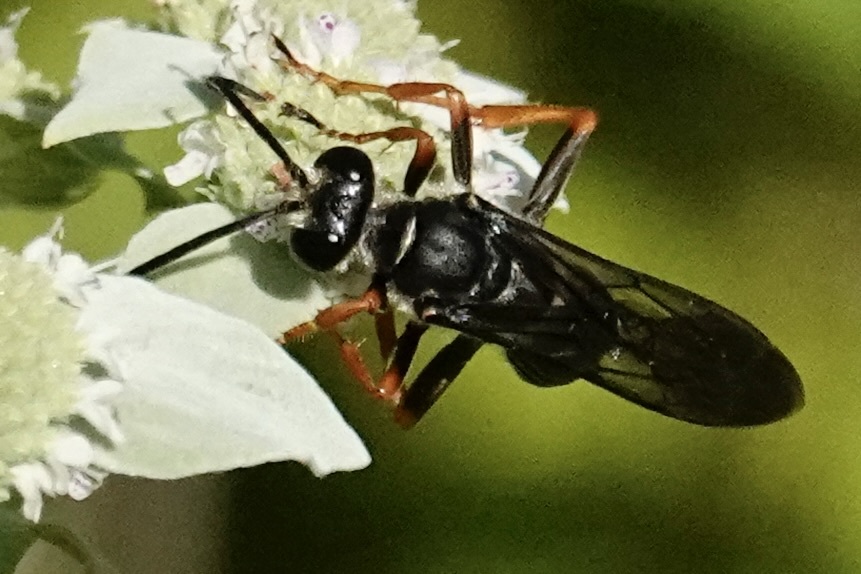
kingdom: Animalia
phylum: Arthropoda
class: Insecta
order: Hymenoptera
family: Sphecidae
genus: Sphex
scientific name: Sphex nudus
